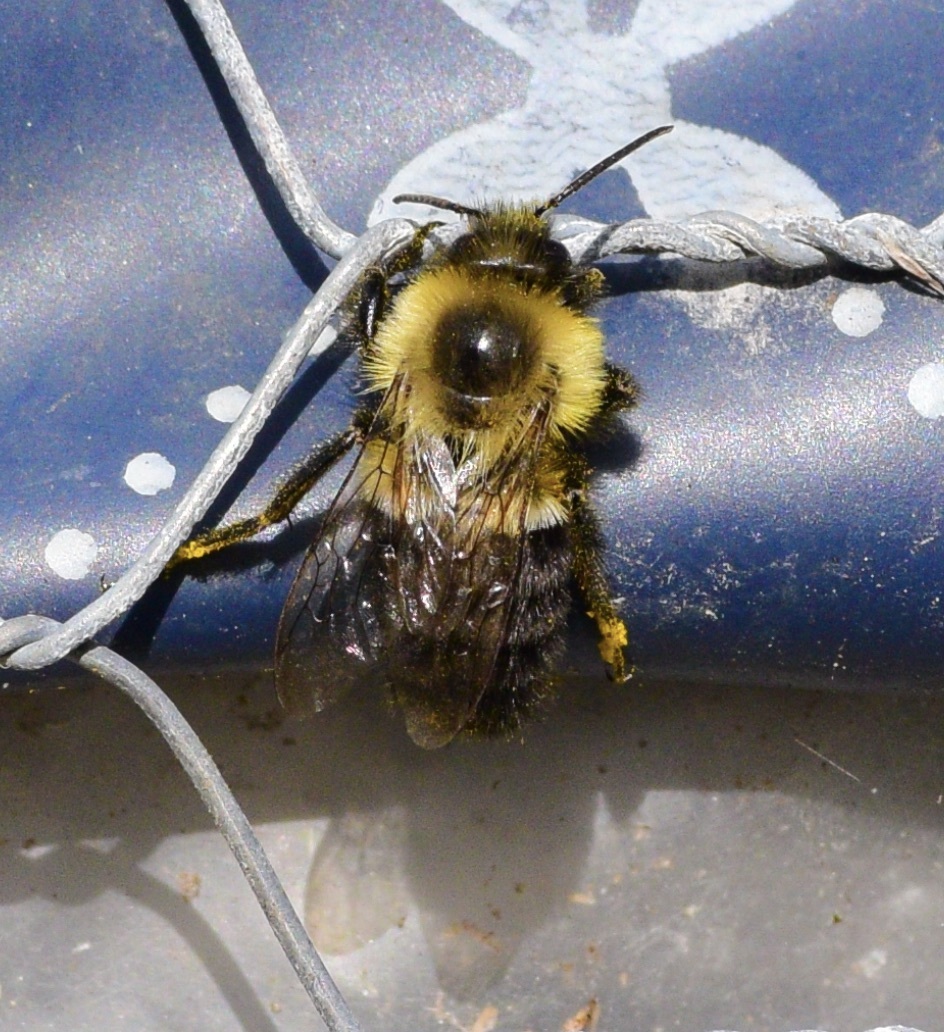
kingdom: Animalia
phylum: Arthropoda
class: Insecta
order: Hymenoptera
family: Apidae
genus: Bombus
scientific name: Bombus impatiens
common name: Common eastern bumble bee
